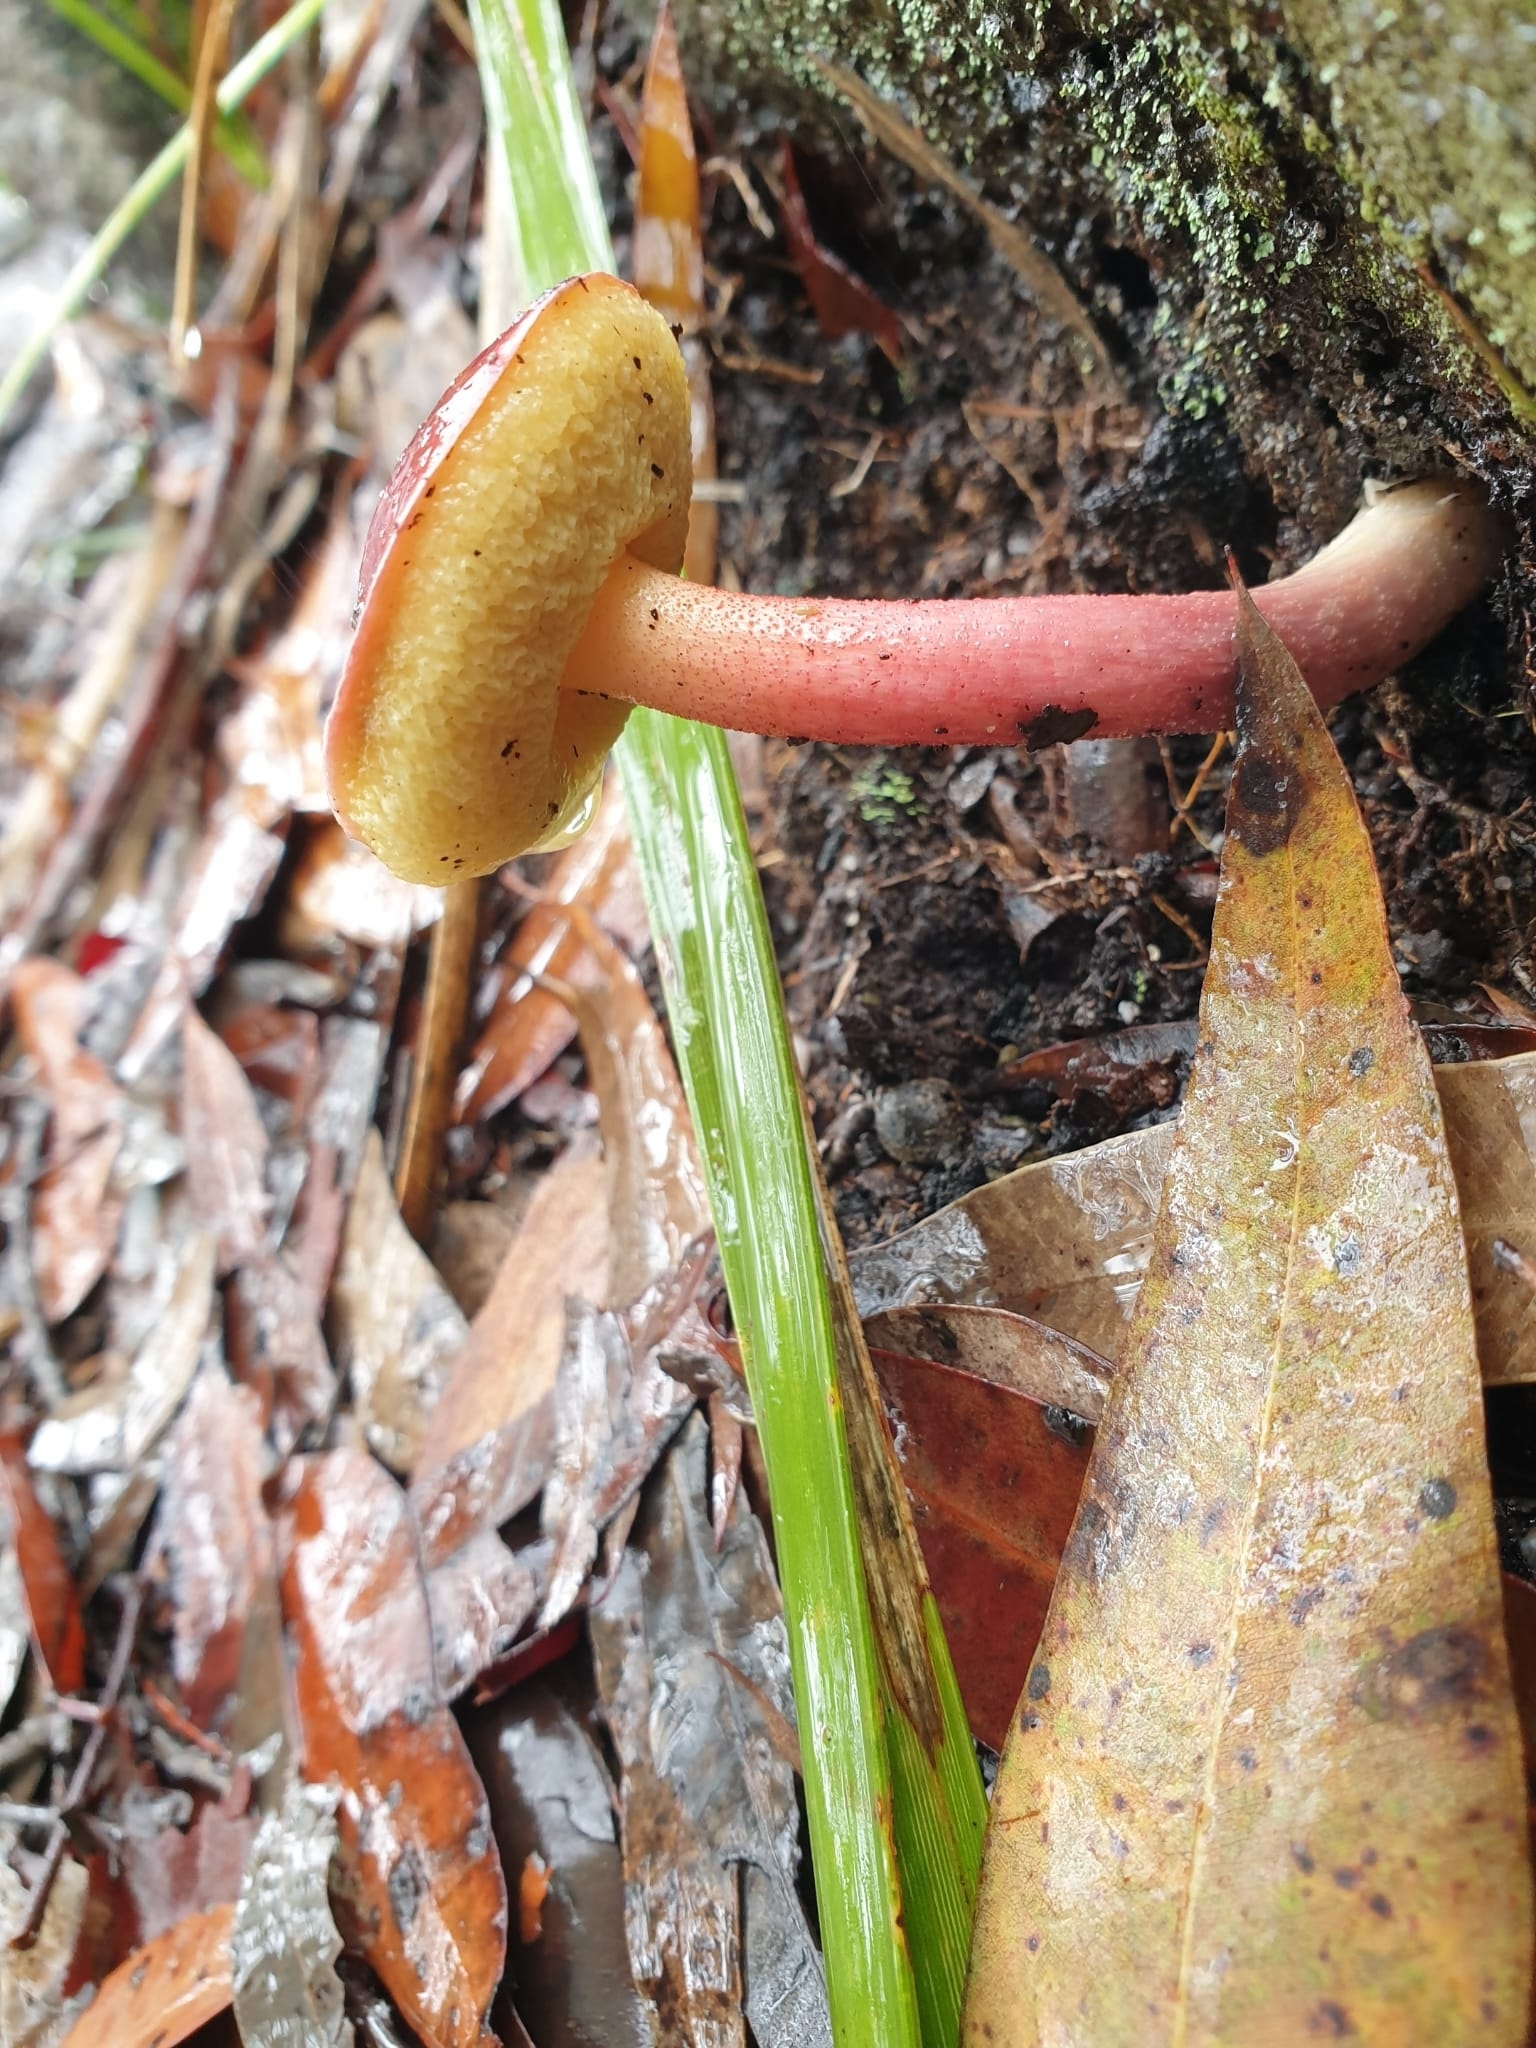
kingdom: Fungi
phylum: Basidiomycota
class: Agaricomycetes
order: Boletales
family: Boletaceae
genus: Boletellus
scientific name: Boletellus obscurecoccineus
